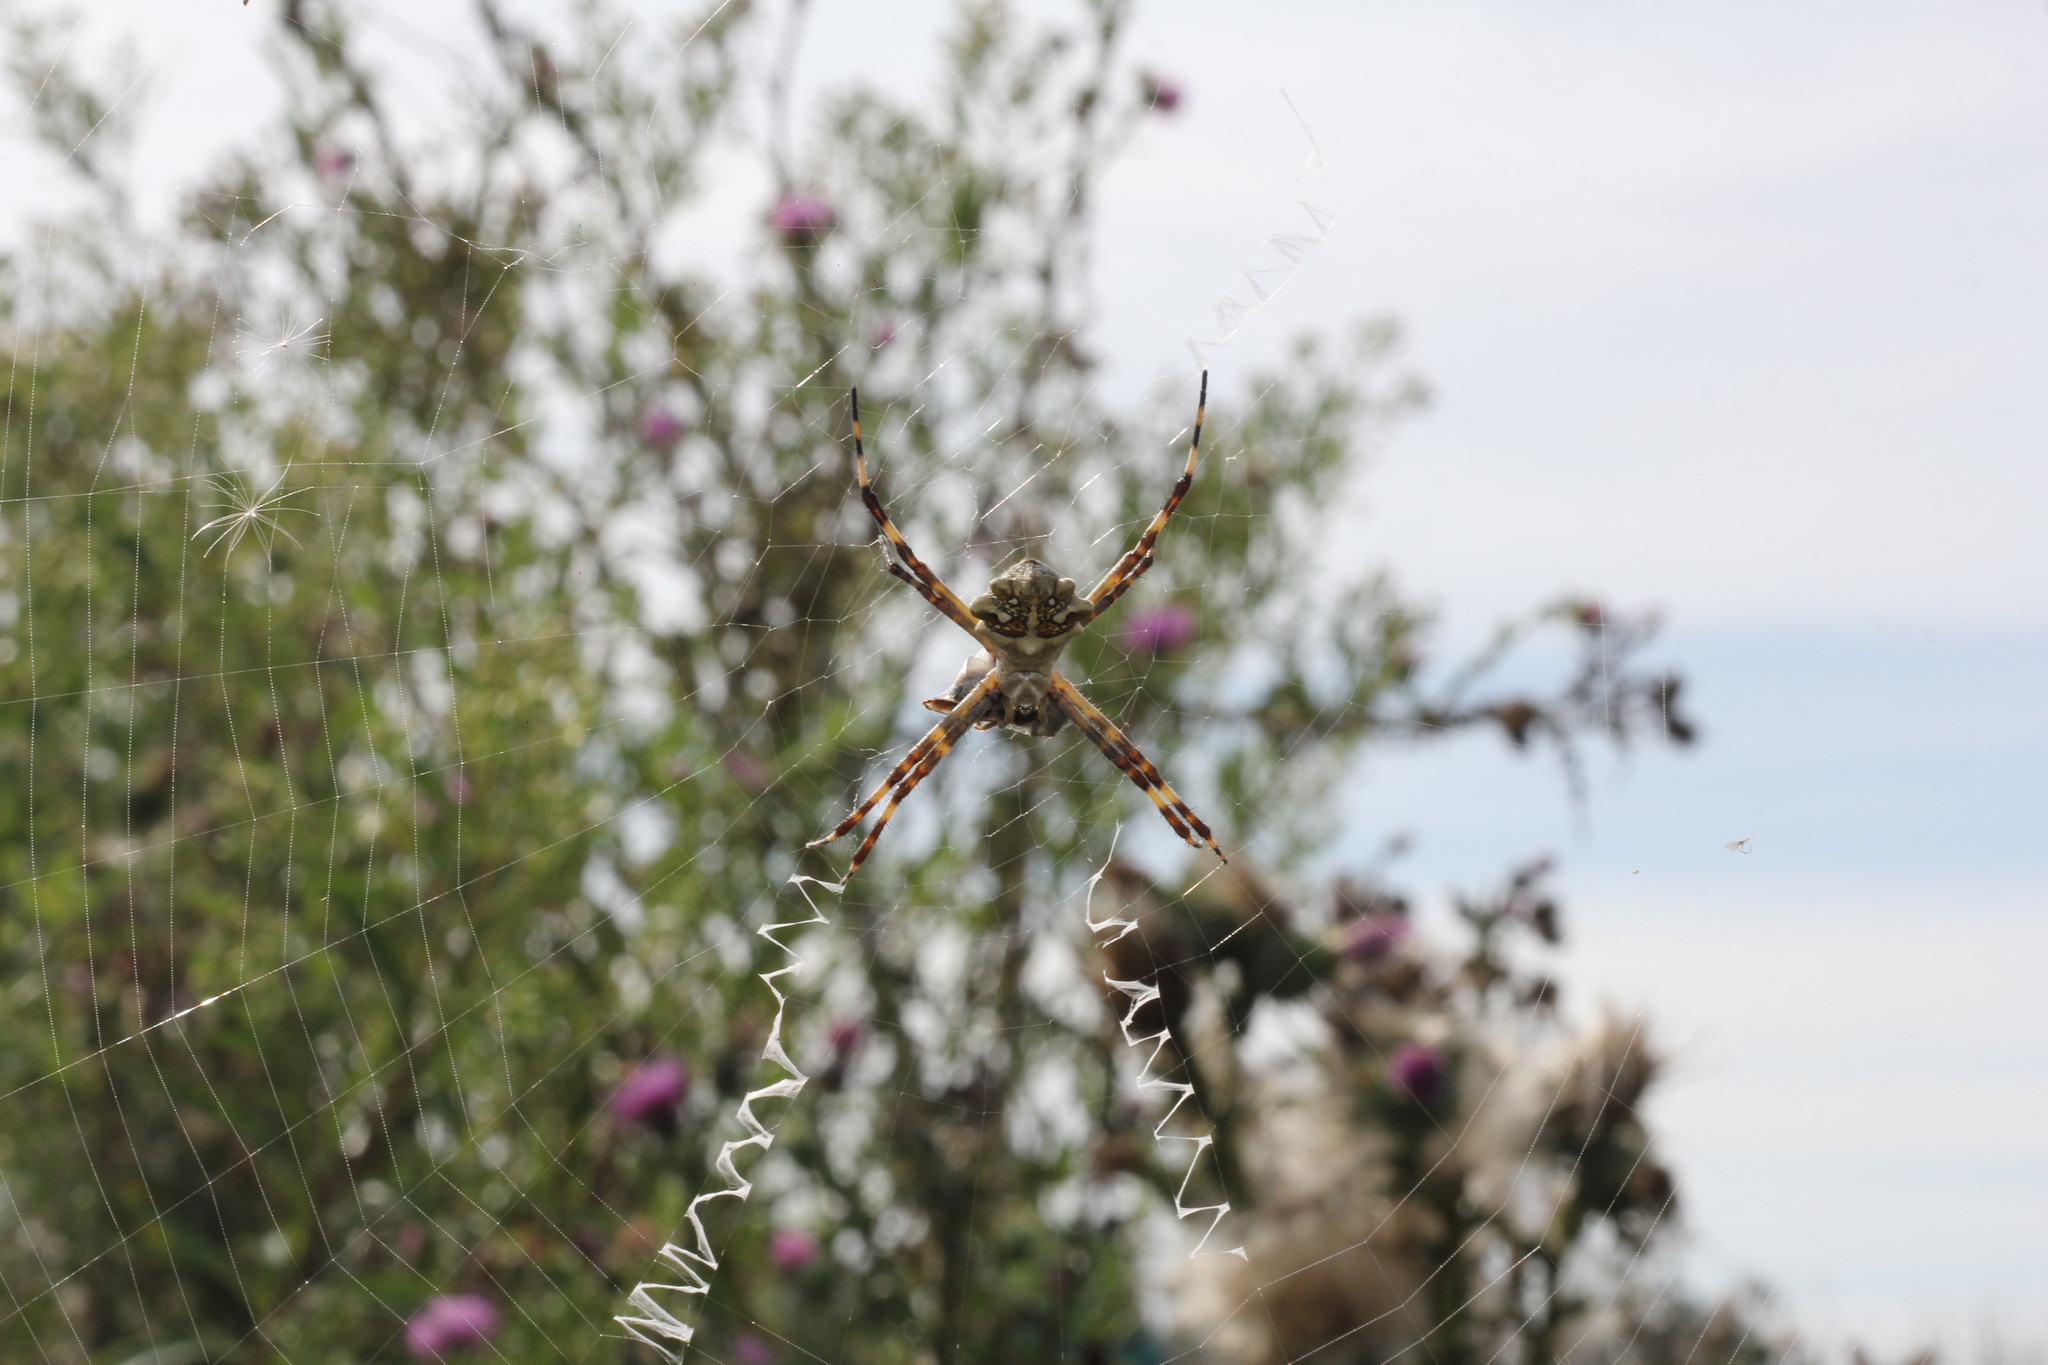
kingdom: Animalia
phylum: Arthropoda
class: Arachnida
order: Araneae
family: Araneidae
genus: Argiope
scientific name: Argiope argentata
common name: Orb weavers
